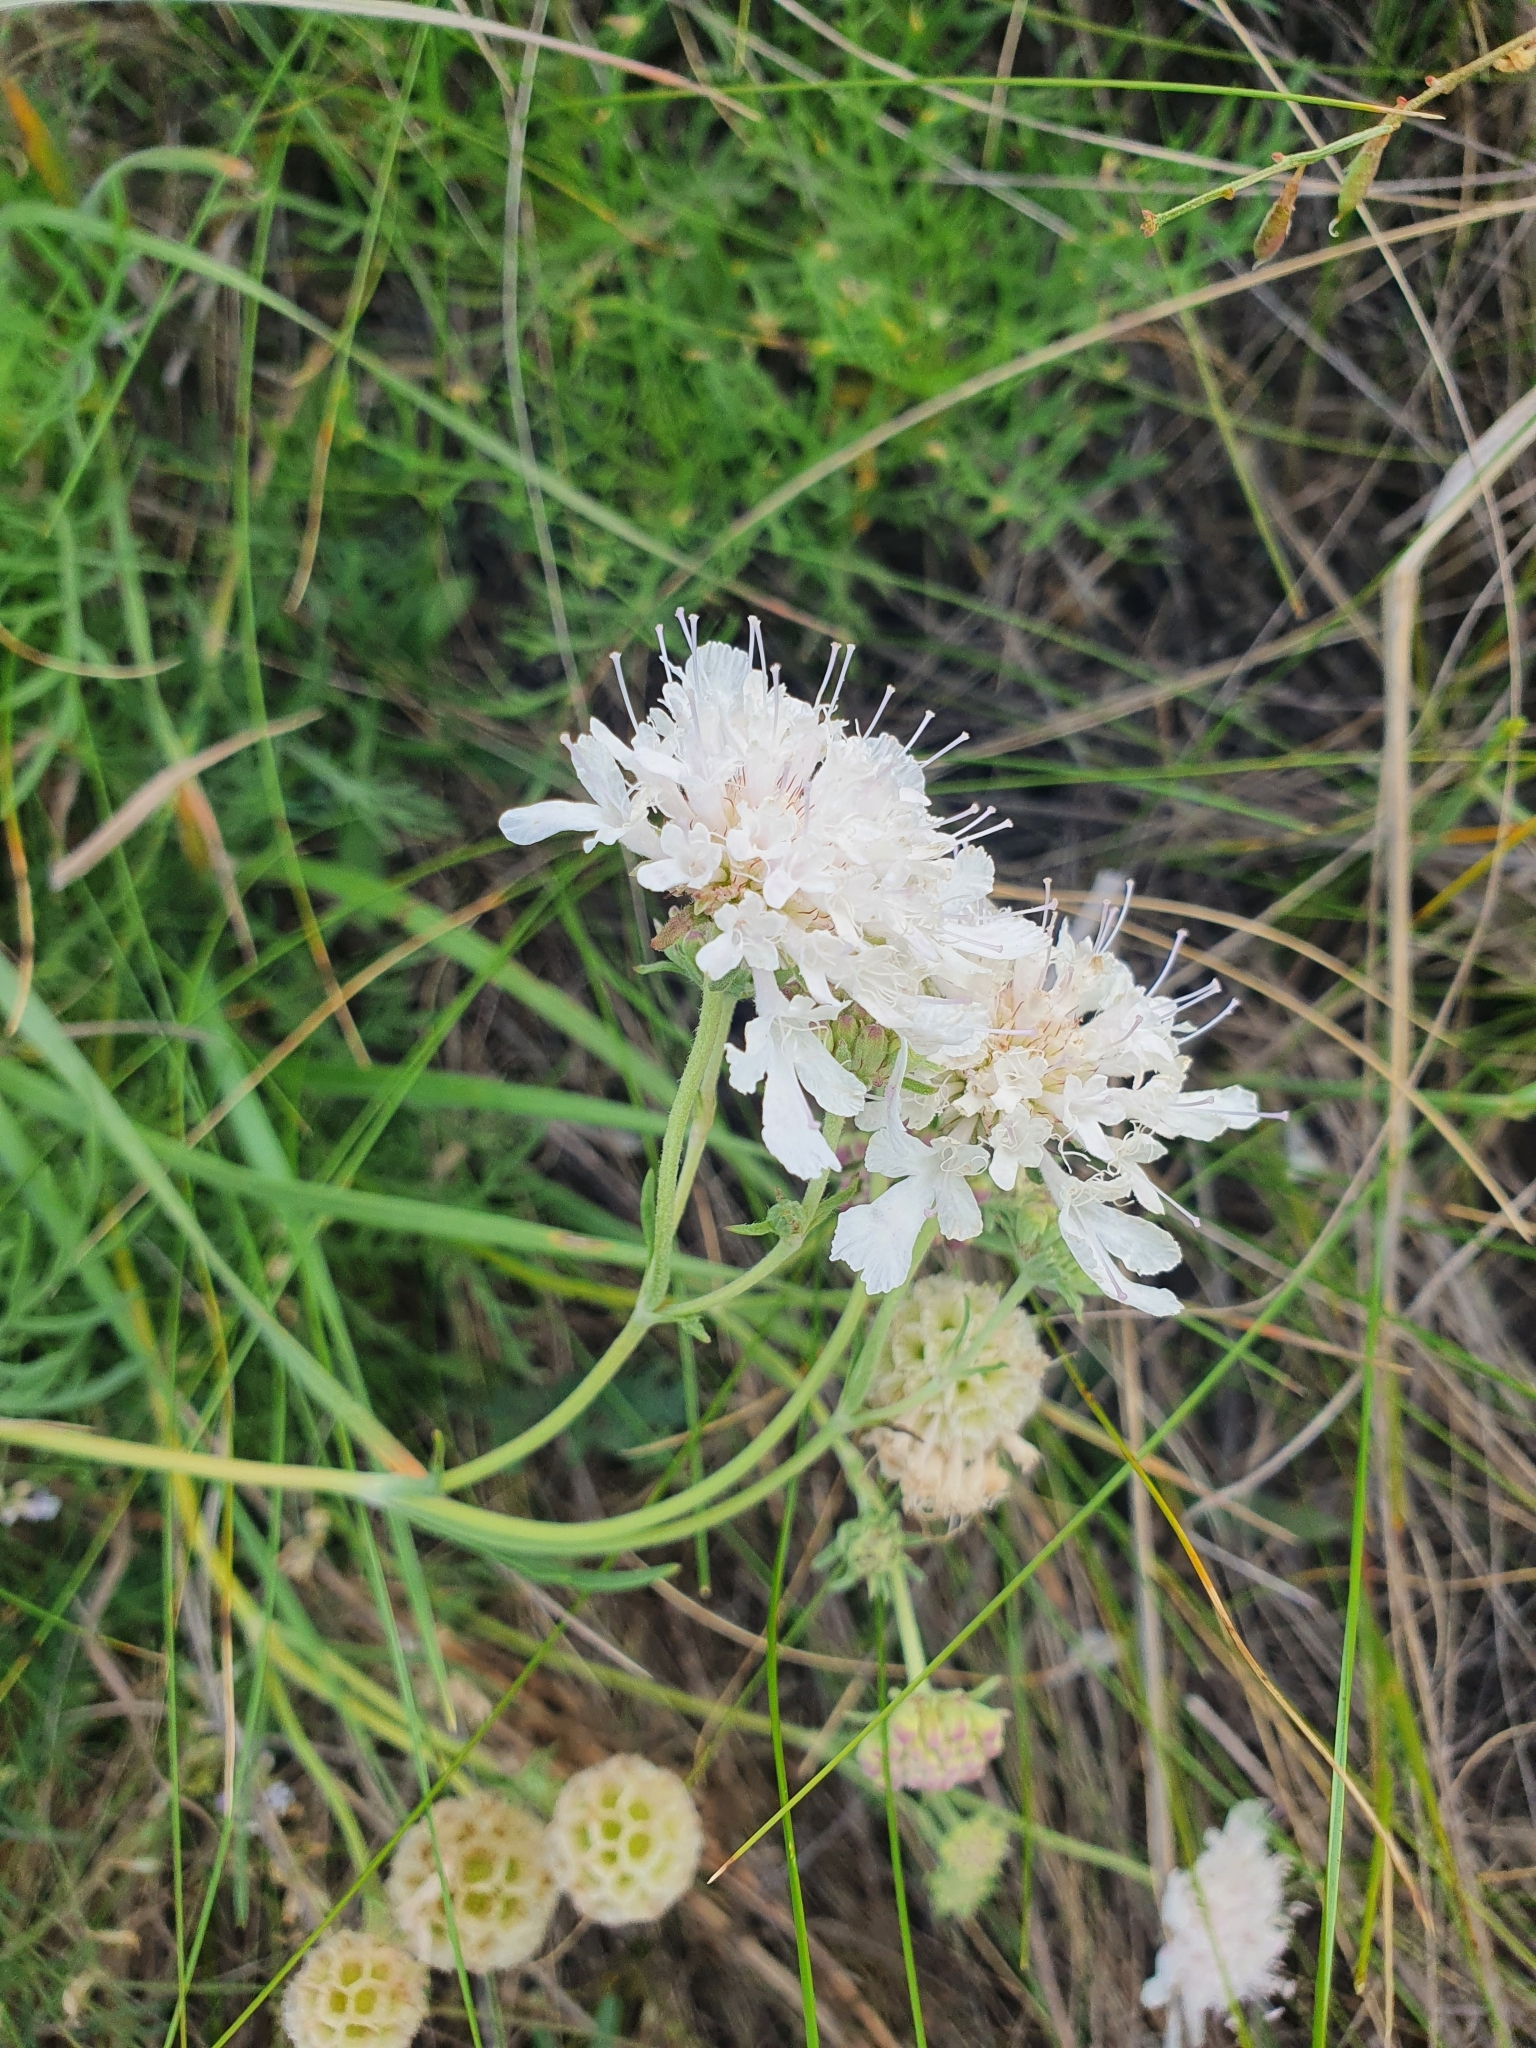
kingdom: Plantae
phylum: Tracheophyta
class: Magnoliopsida
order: Dipsacales
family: Caprifoliaceae
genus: Lomelosia
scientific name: Lomelosia isetensis
